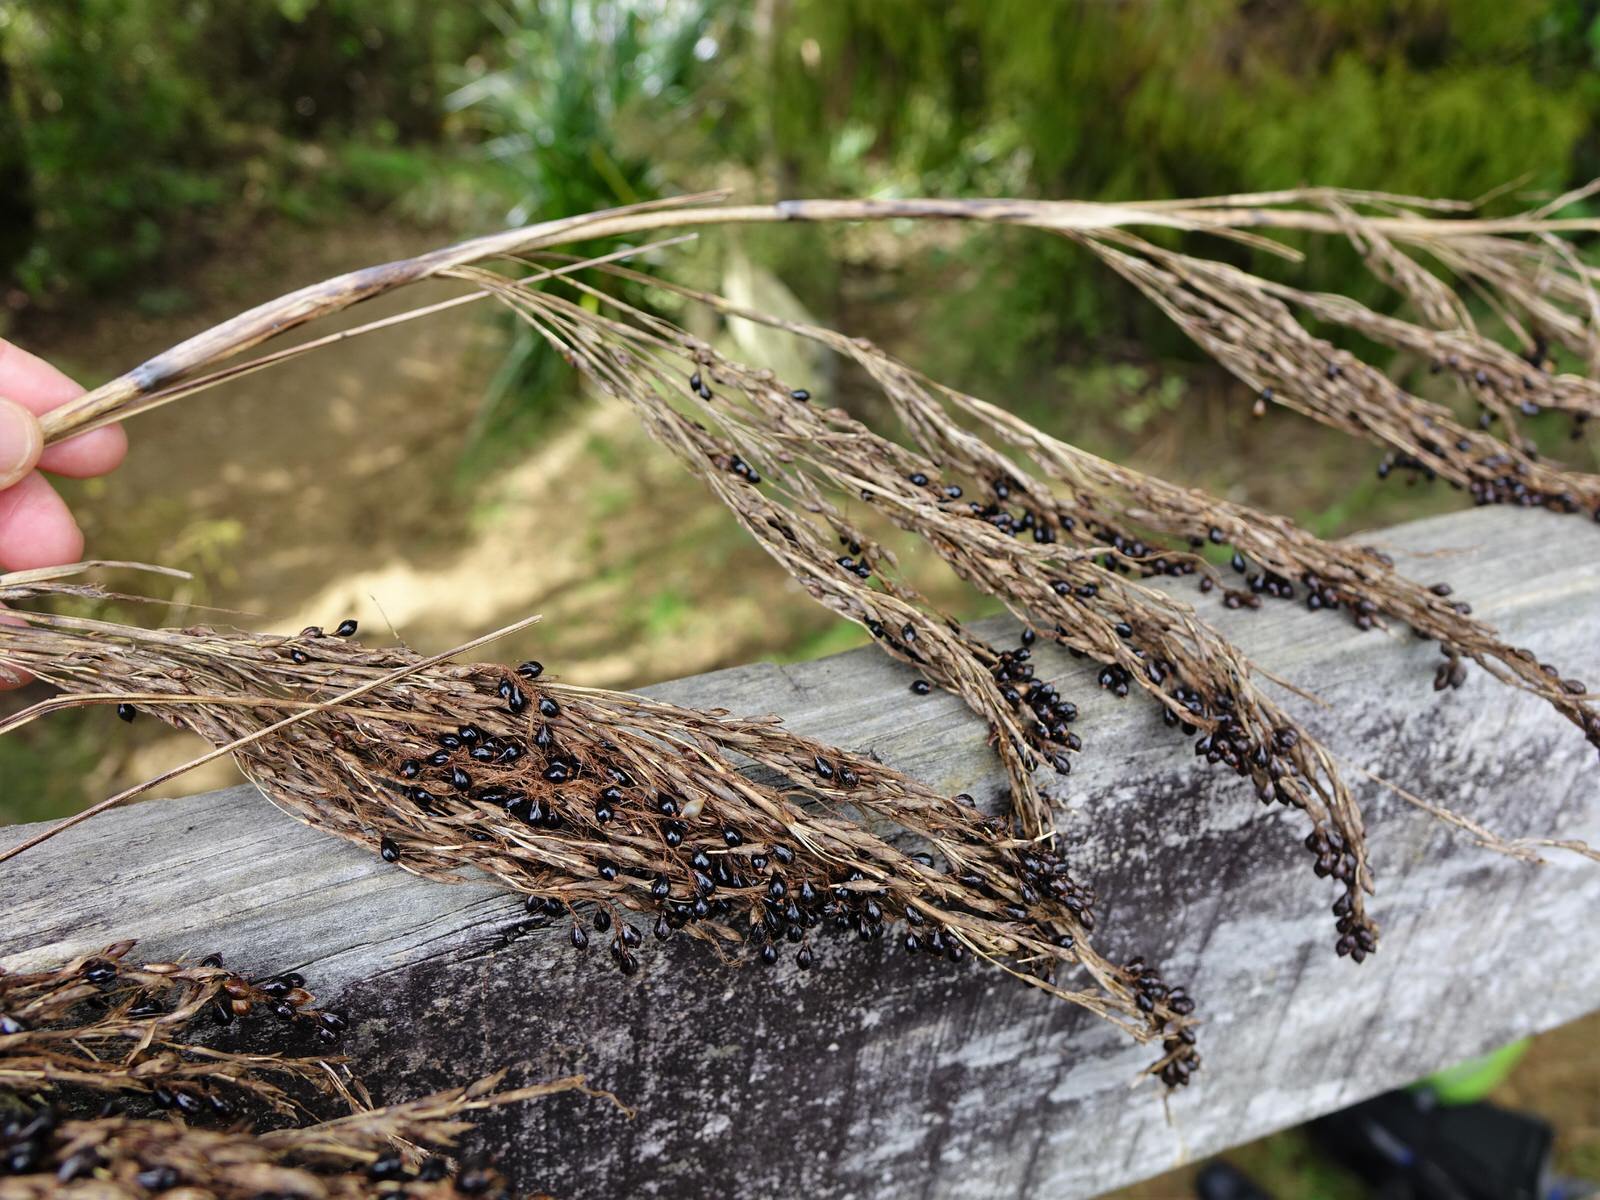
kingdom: Plantae
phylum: Tracheophyta
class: Liliopsida
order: Poales
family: Cyperaceae
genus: Gahnia
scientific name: Gahnia xanthocarpa
